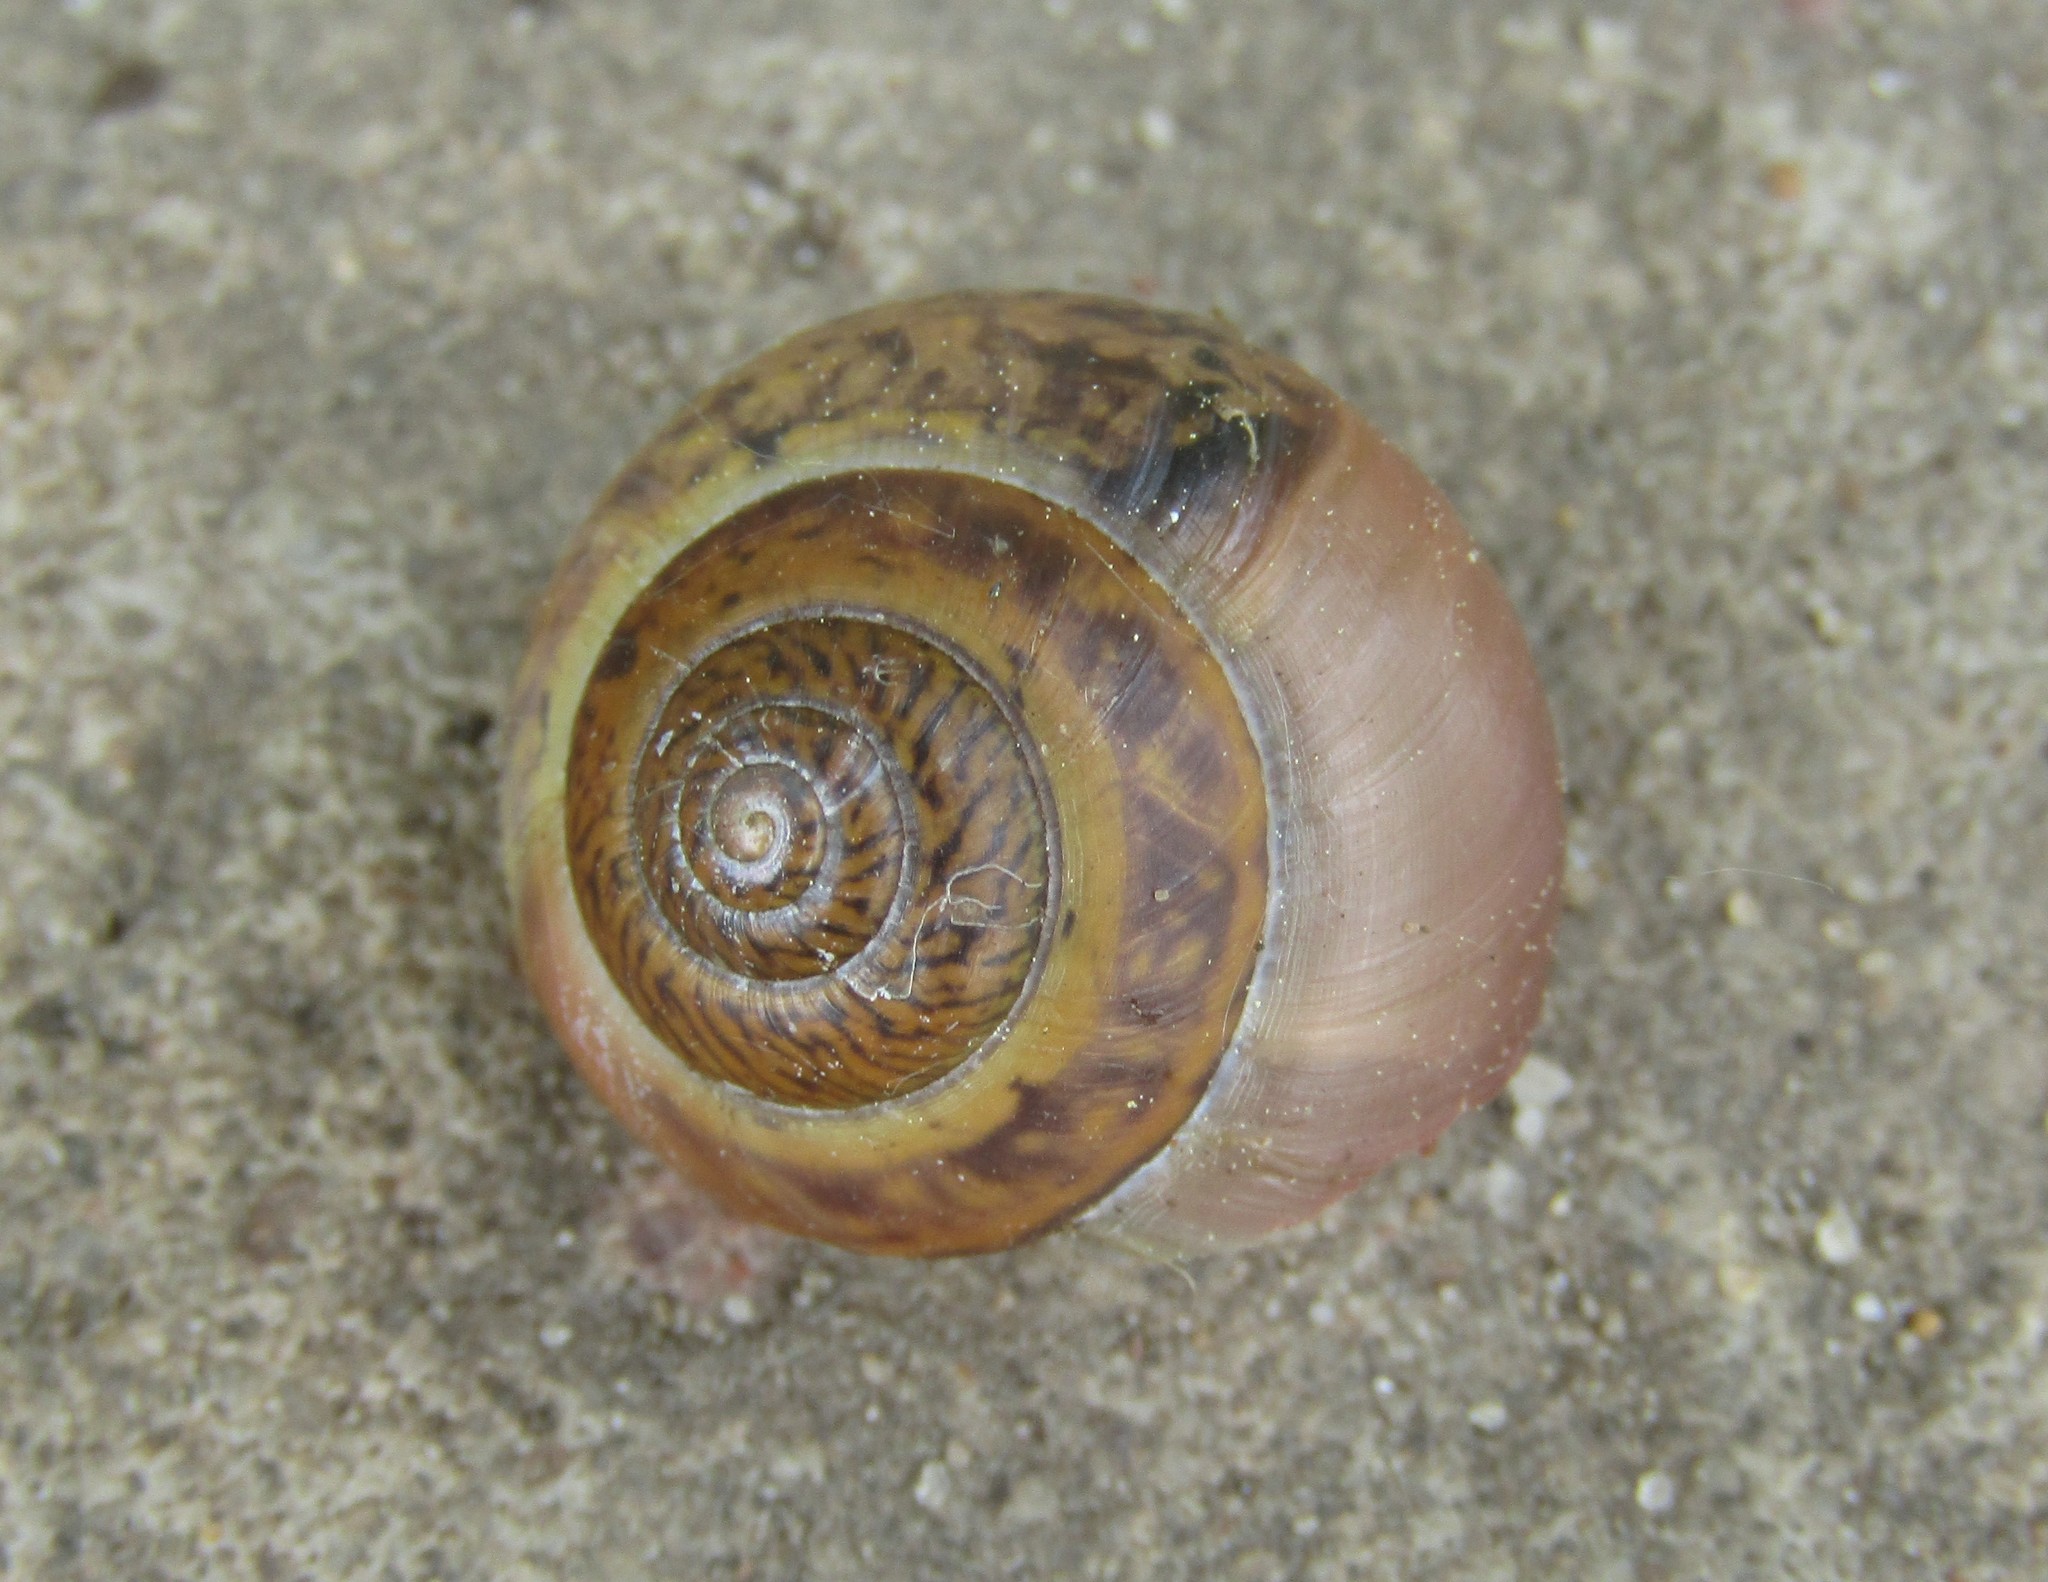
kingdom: Animalia
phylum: Mollusca
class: Gastropoda
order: Stylommatophora
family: Camaenidae
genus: Fruticicola
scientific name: Fruticicola fruticum
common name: Bush snail
